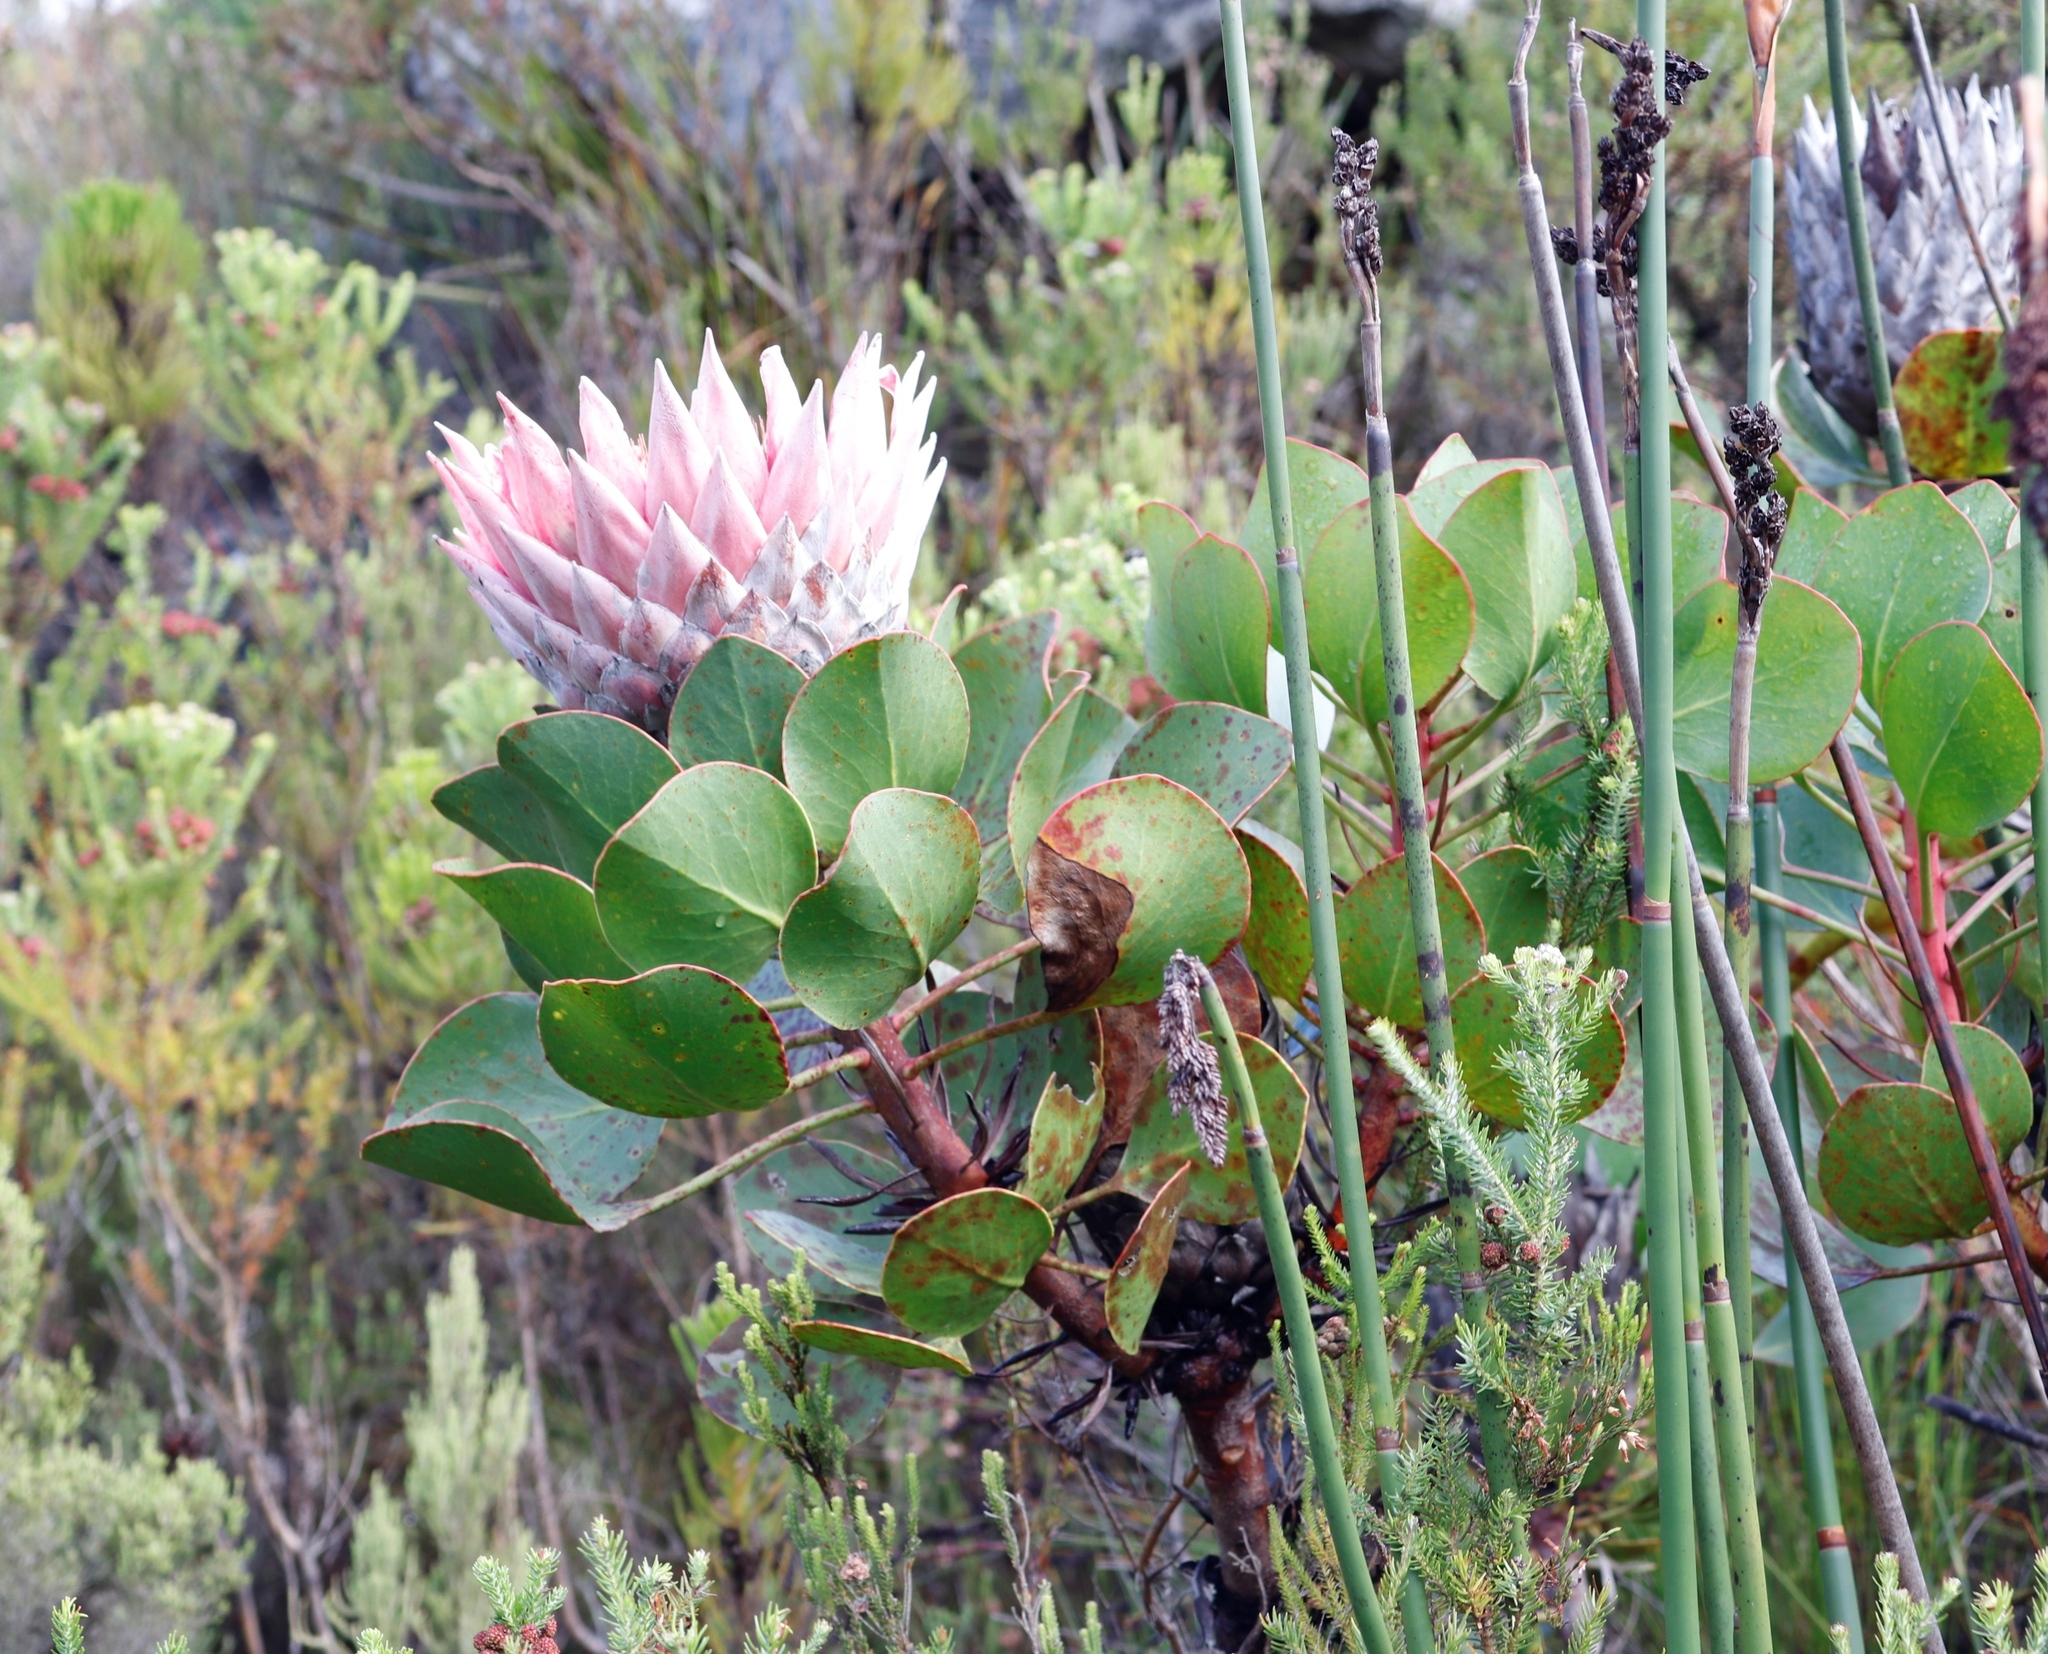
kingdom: Plantae
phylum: Tracheophyta
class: Magnoliopsida
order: Proteales
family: Proteaceae
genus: Protea
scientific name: Protea cynaroides
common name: King protea
